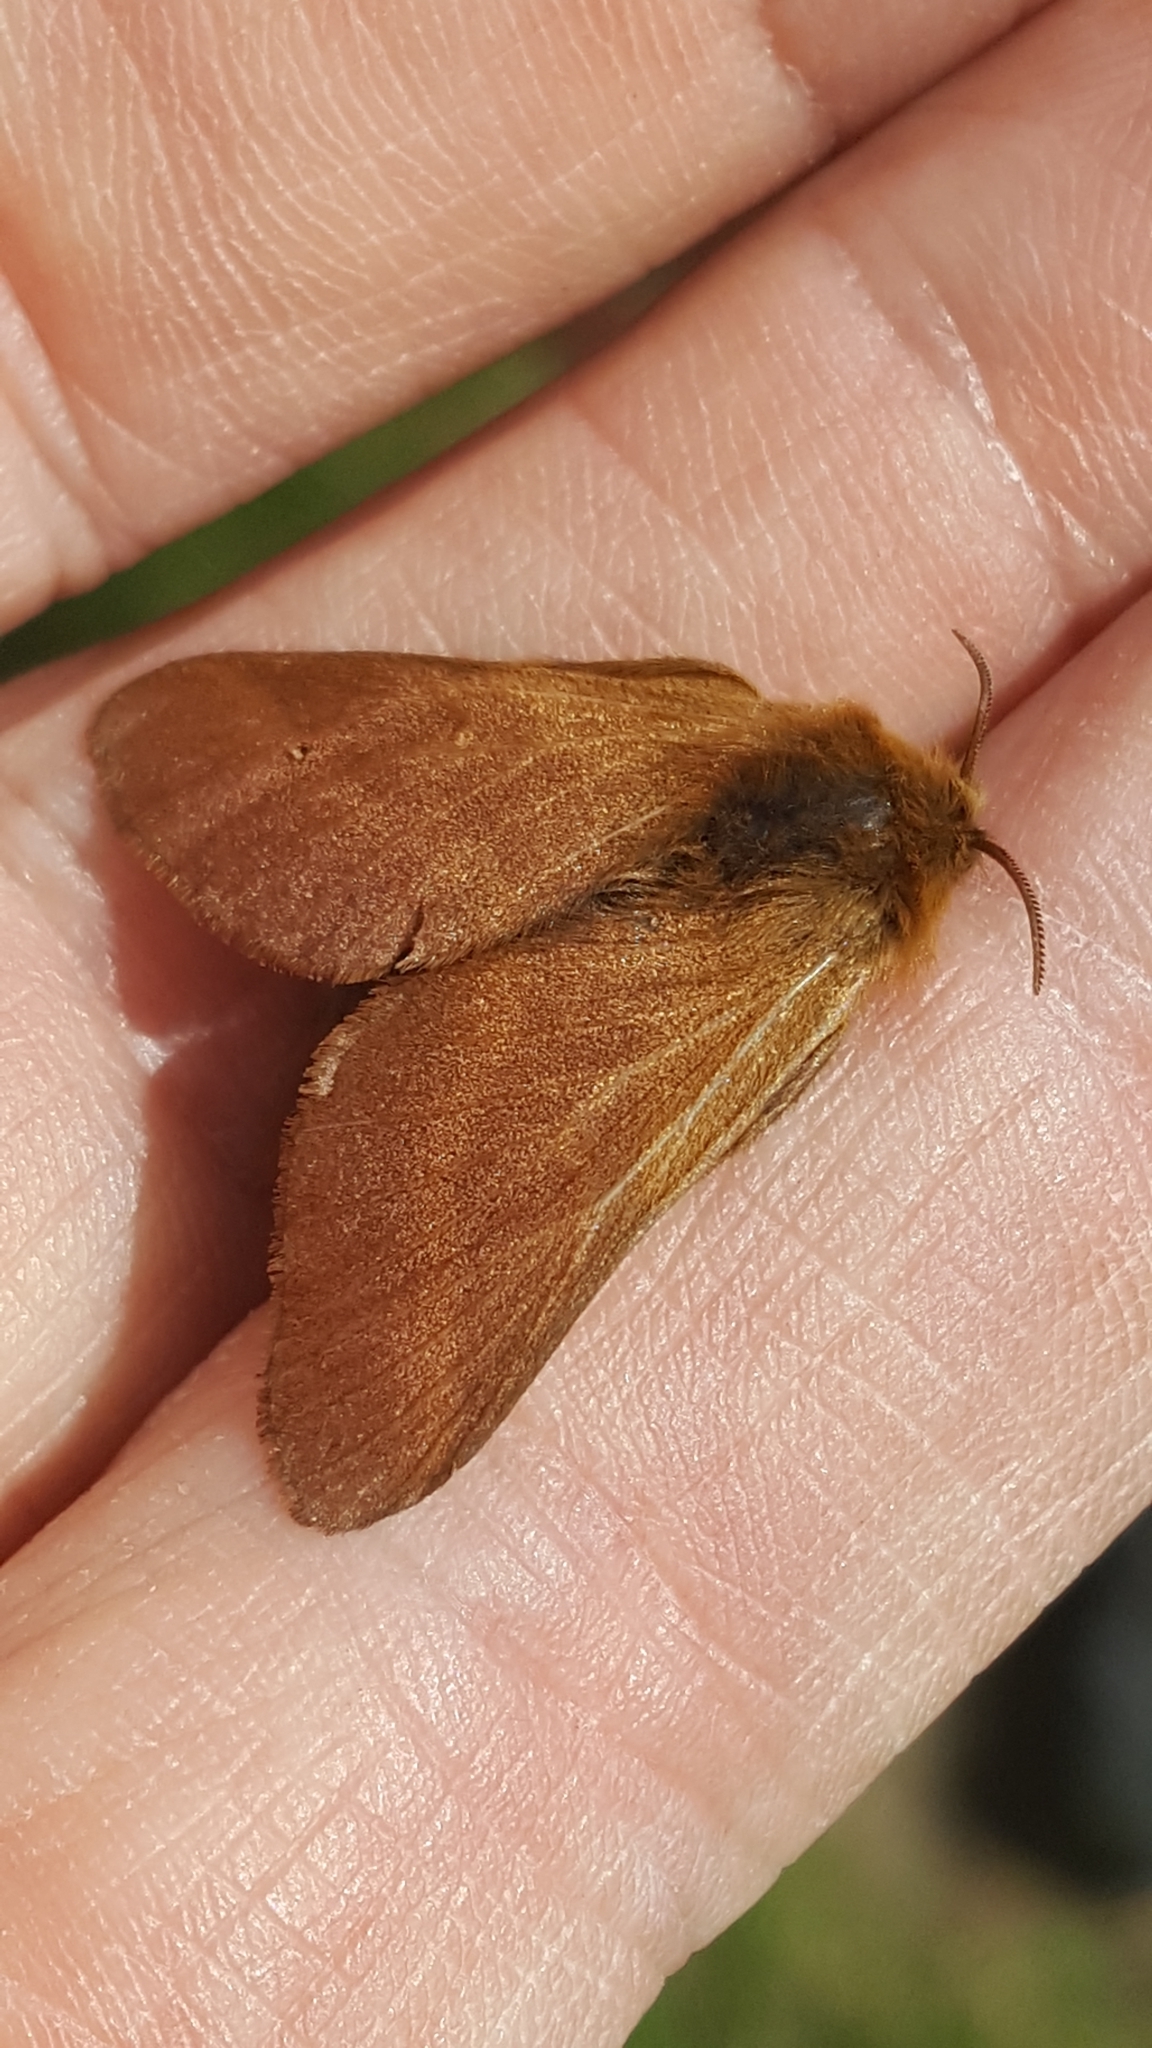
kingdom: Animalia
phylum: Arthropoda
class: Insecta
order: Lepidoptera
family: Lasiocampidae
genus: Malacosoma
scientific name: Malacosoma alpicola
